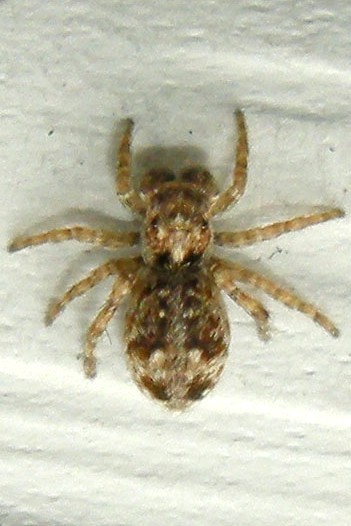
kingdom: Animalia
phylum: Arthropoda
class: Arachnida
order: Araneae
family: Salticidae
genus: Attulus
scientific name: Attulus fasciger
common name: Asiatic wall jumping spider
